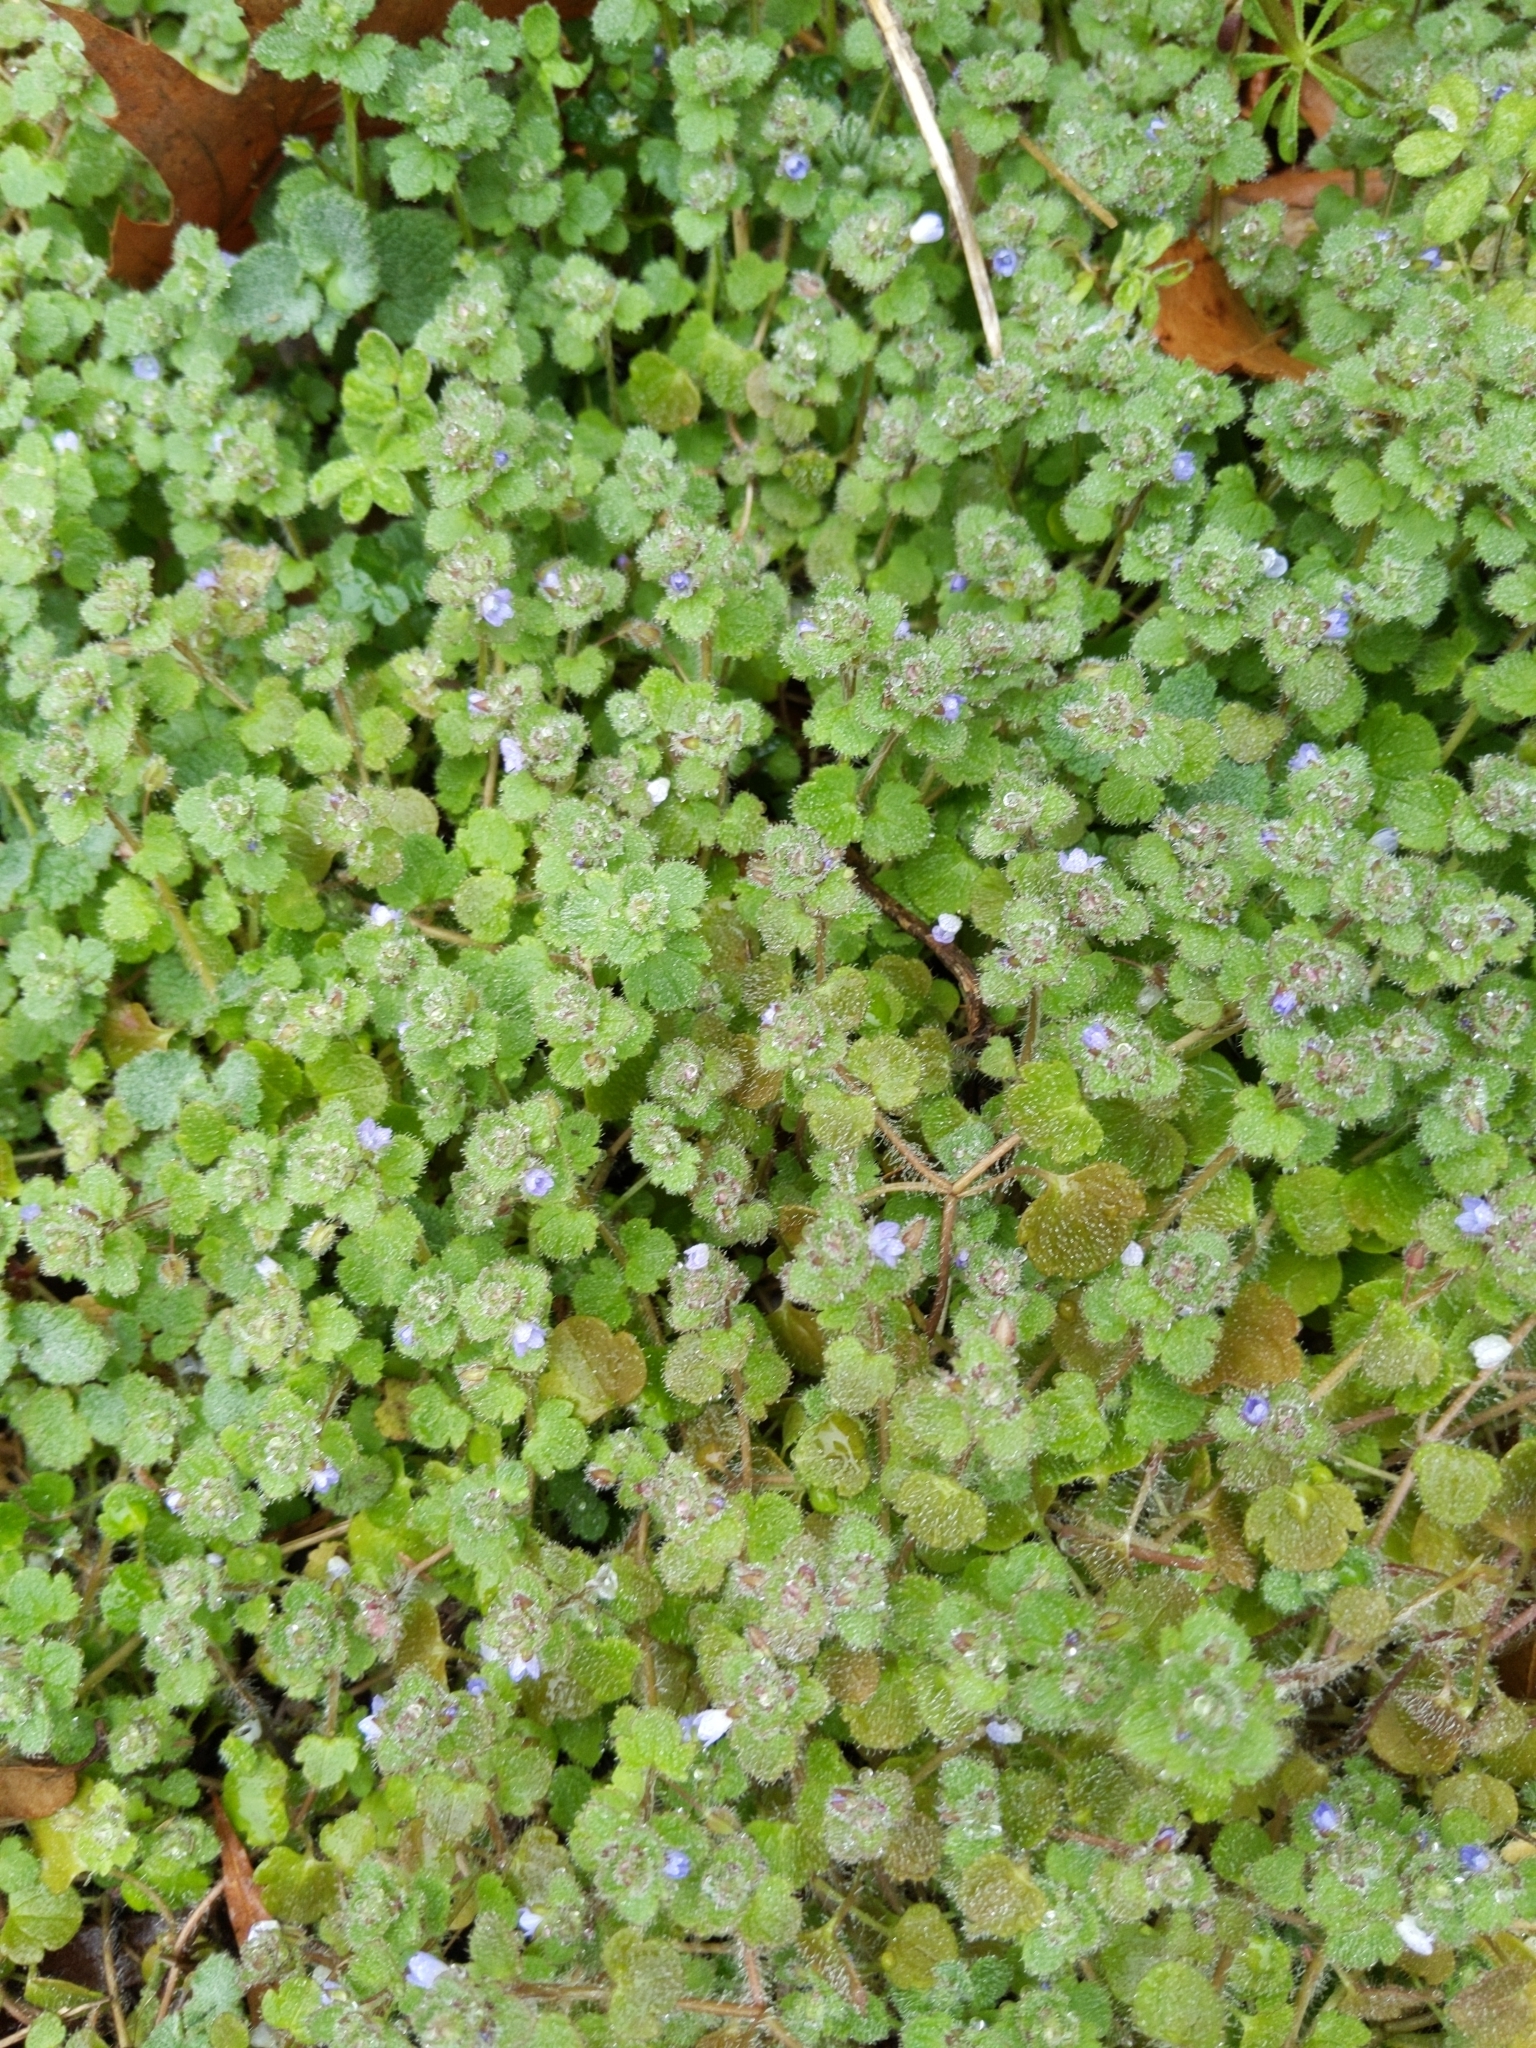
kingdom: Plantae
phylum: Tracheophyta
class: Magnoliopsida
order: Lamiales
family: Plantaginaceae
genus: Veronica
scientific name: Veronica hederifolia
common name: Ivy-leaved speedwell
